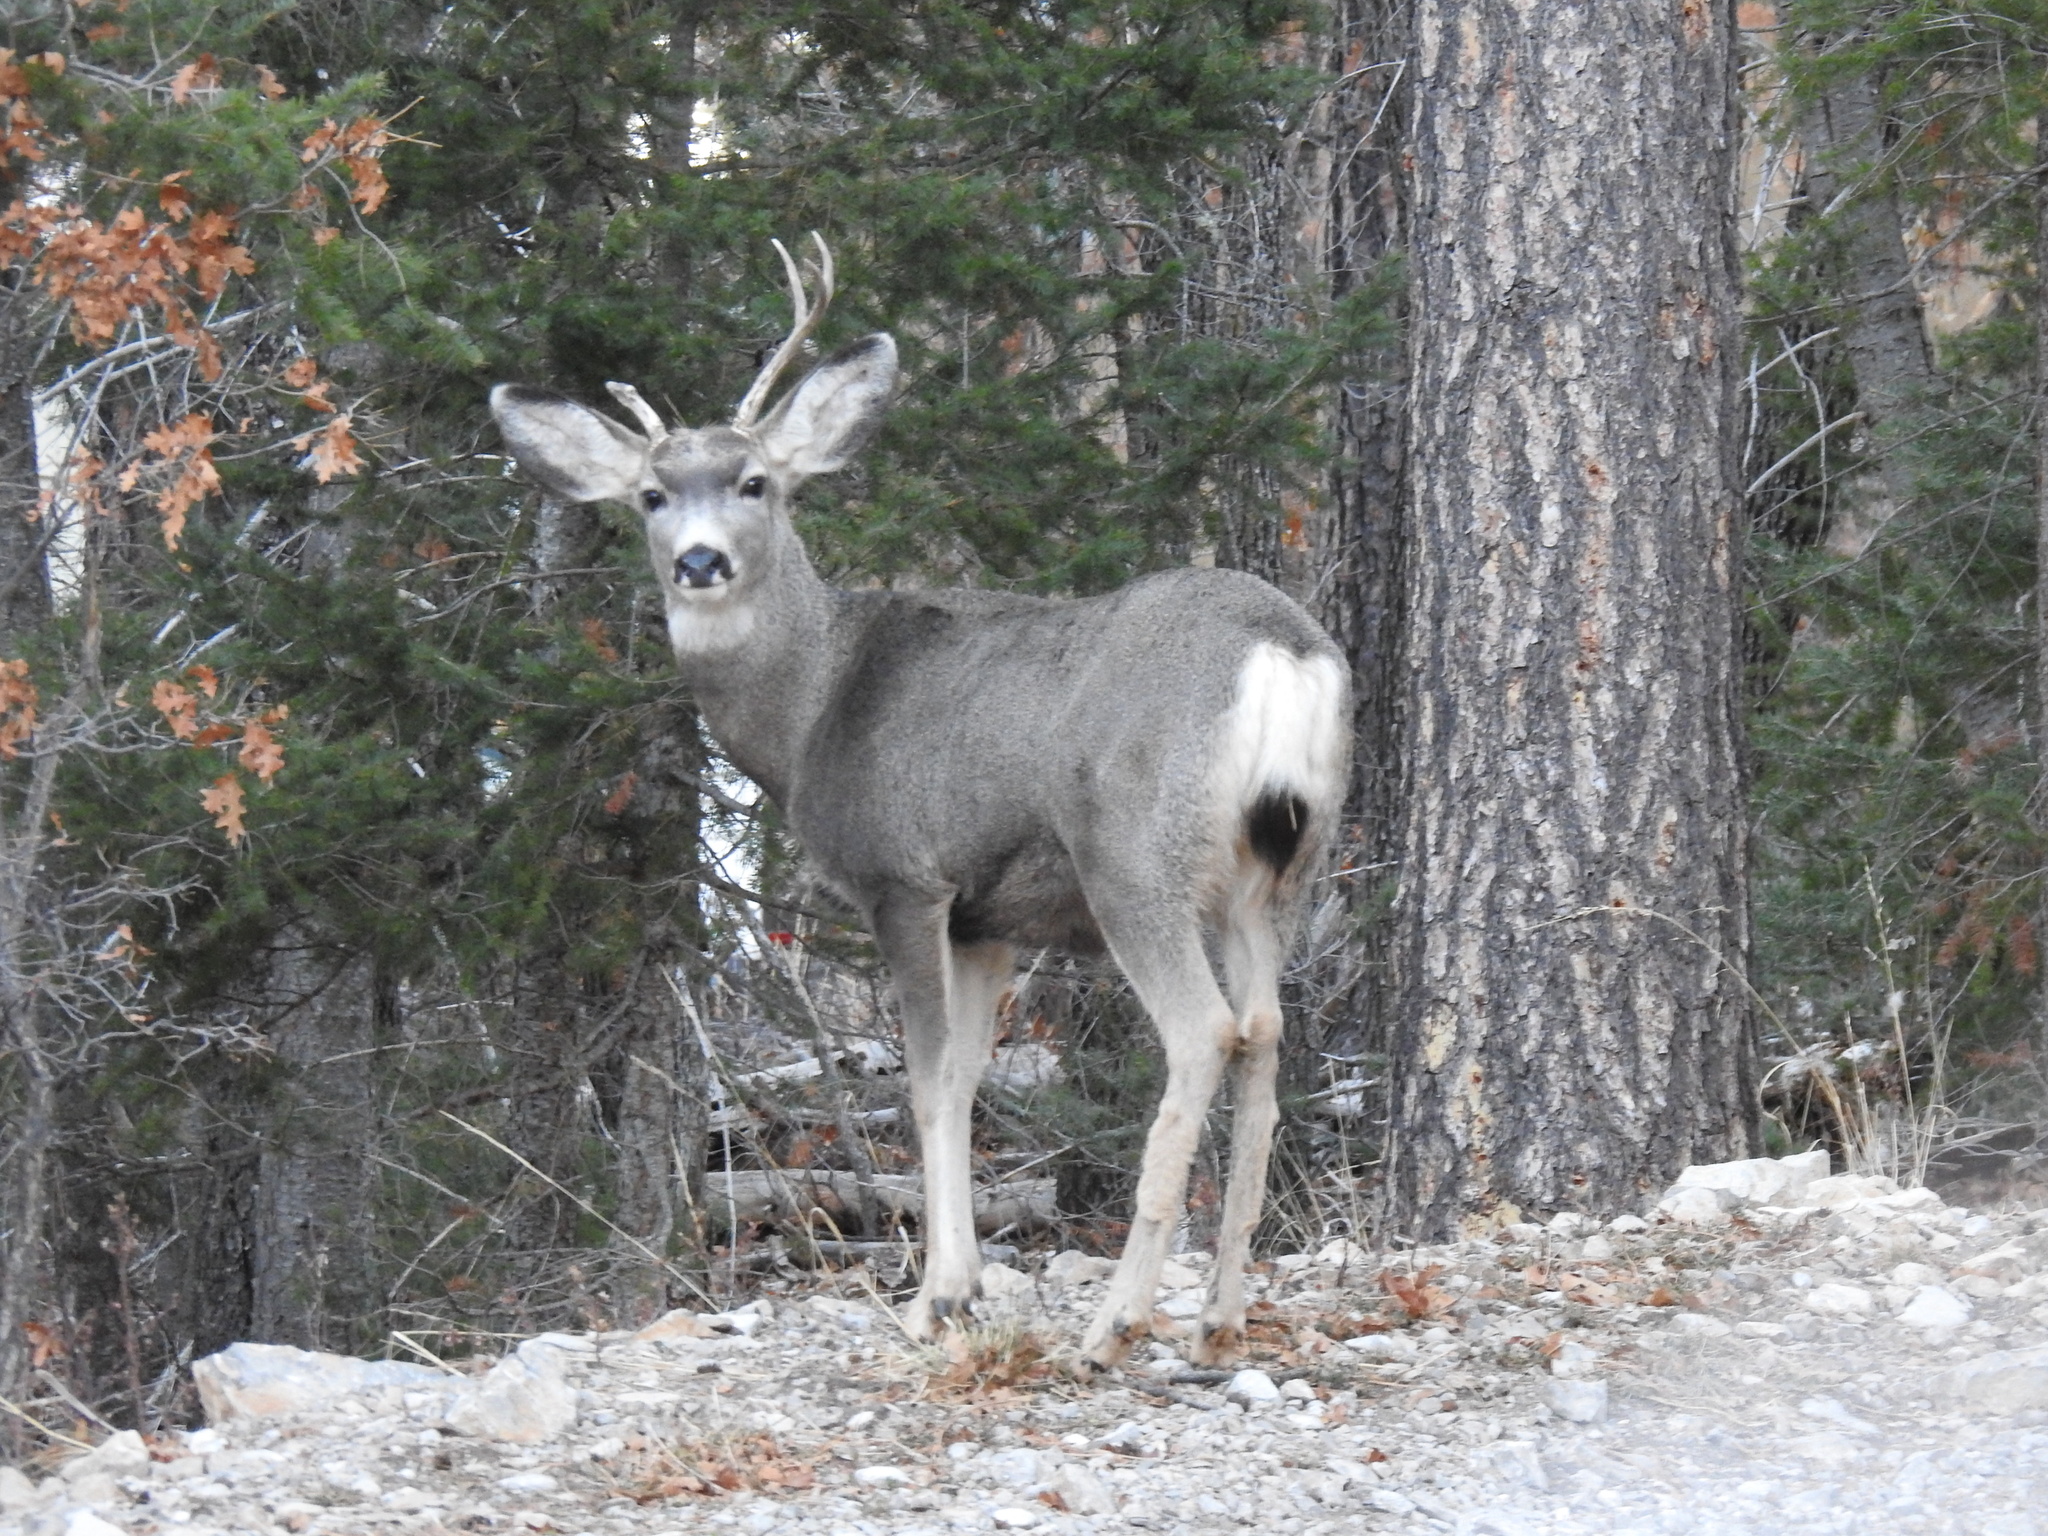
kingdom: Animalia
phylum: Chordata
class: Mammalia
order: Artiodactyla
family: Cervidae
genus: Odocoileus
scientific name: Odocoileus hemionus
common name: Mule deer
